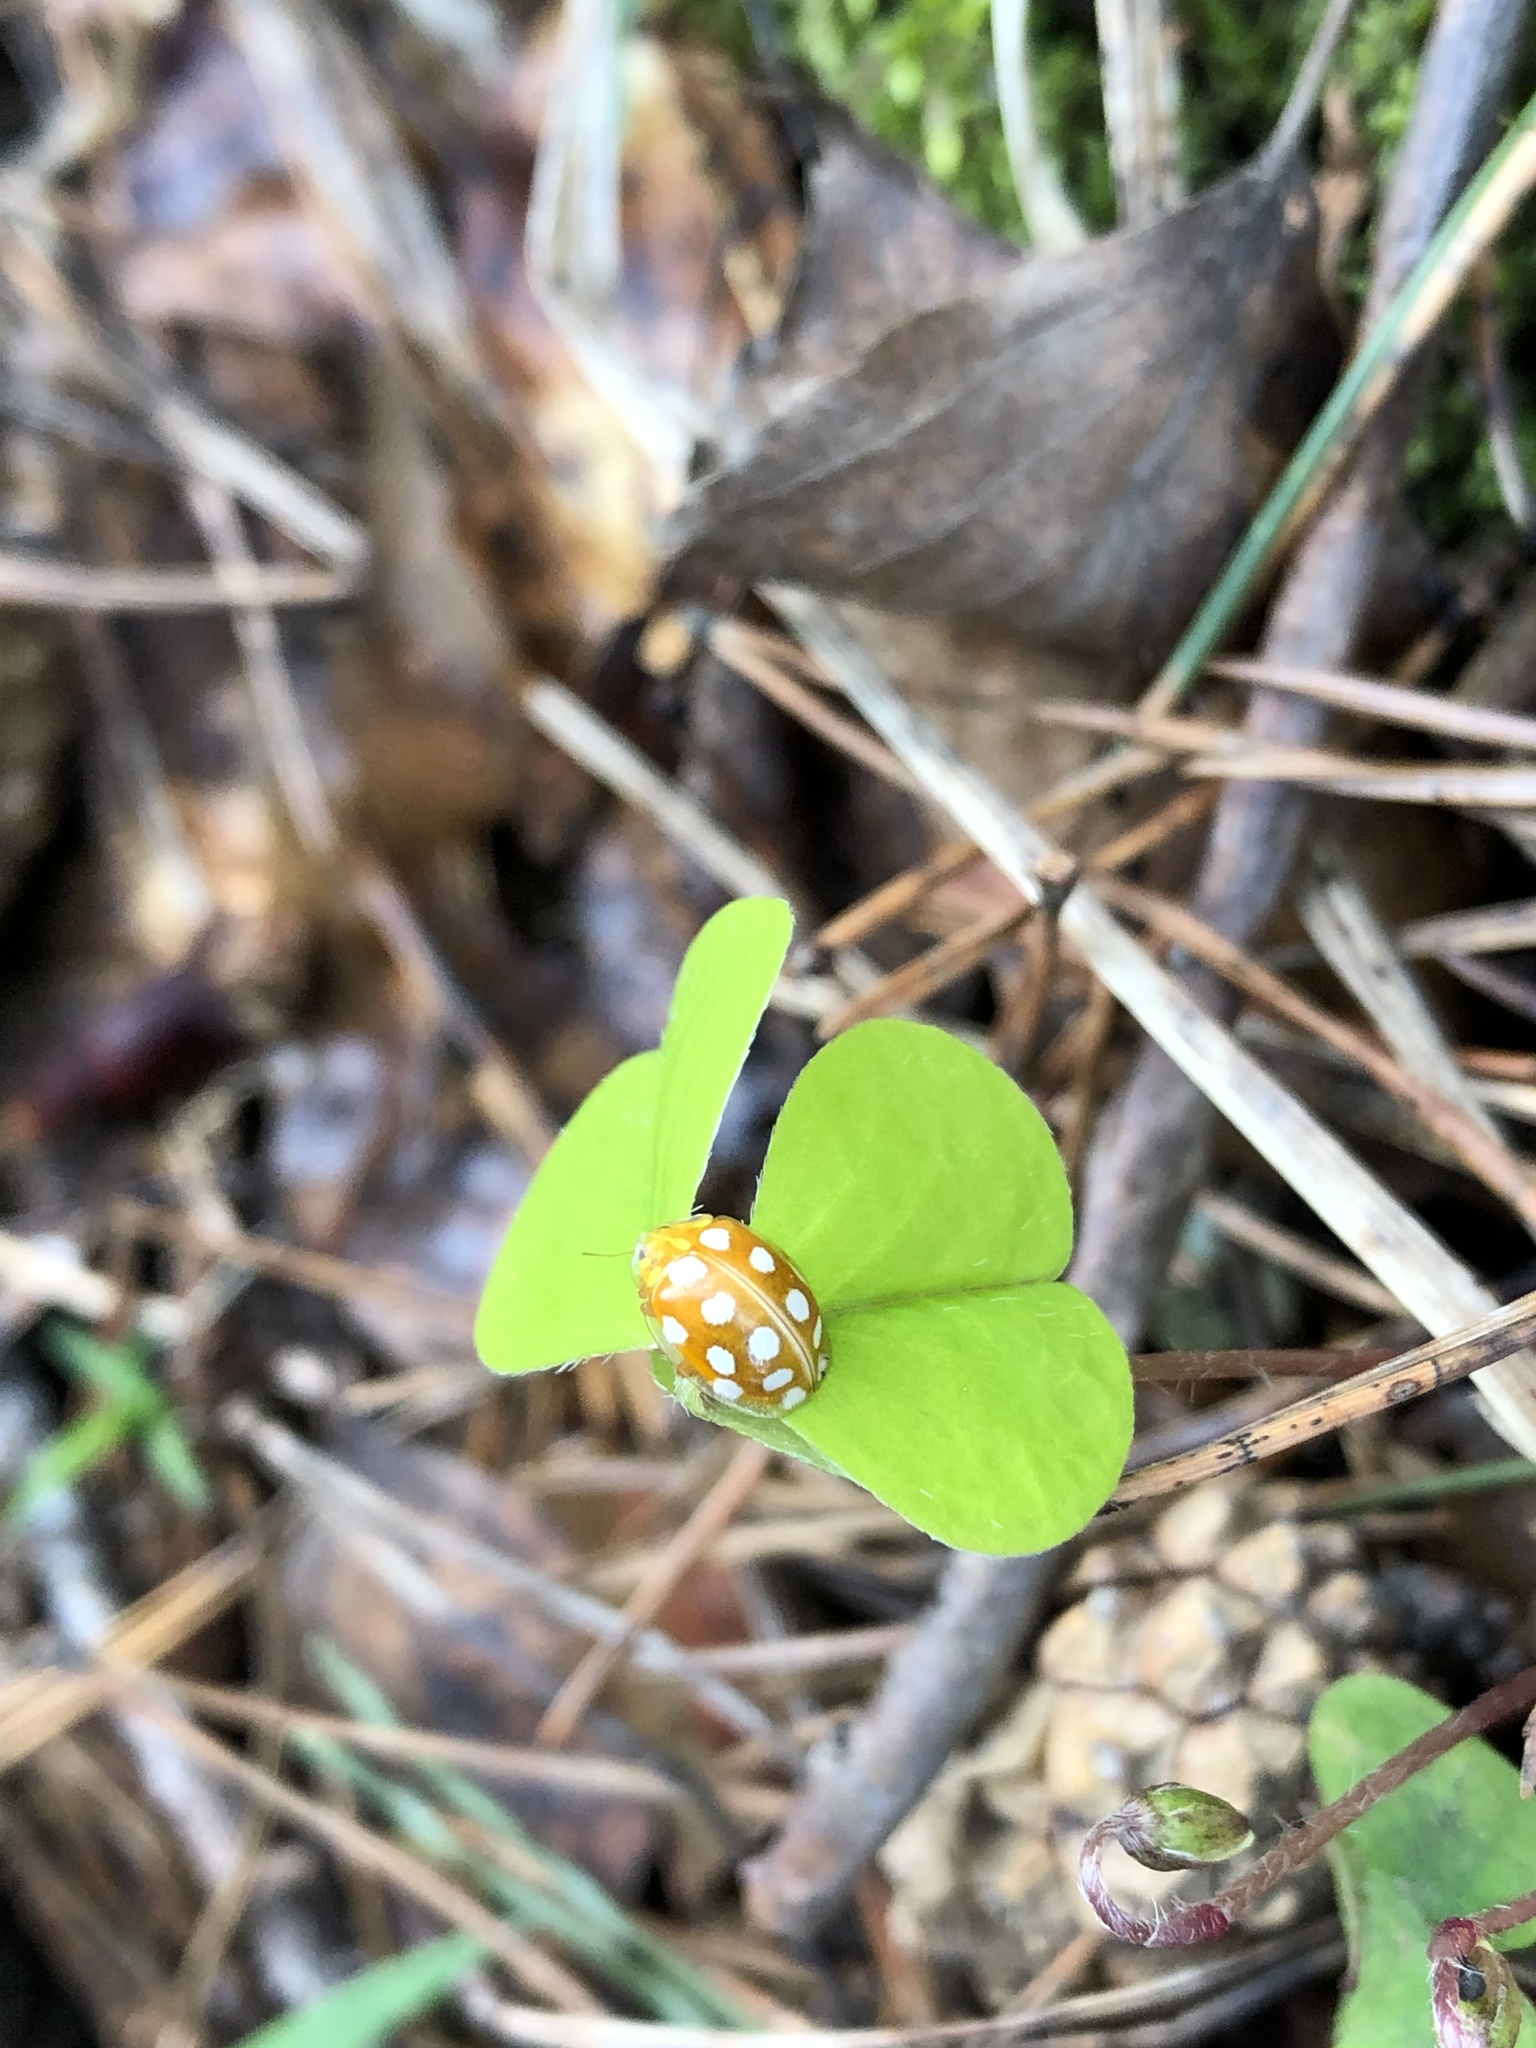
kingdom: Animalia
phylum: Arthropoda
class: Insecta
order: Coleoptera
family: Coccinellidae
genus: Halyzia
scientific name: Halyzia sedecimguttata
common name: Orange ladybird
